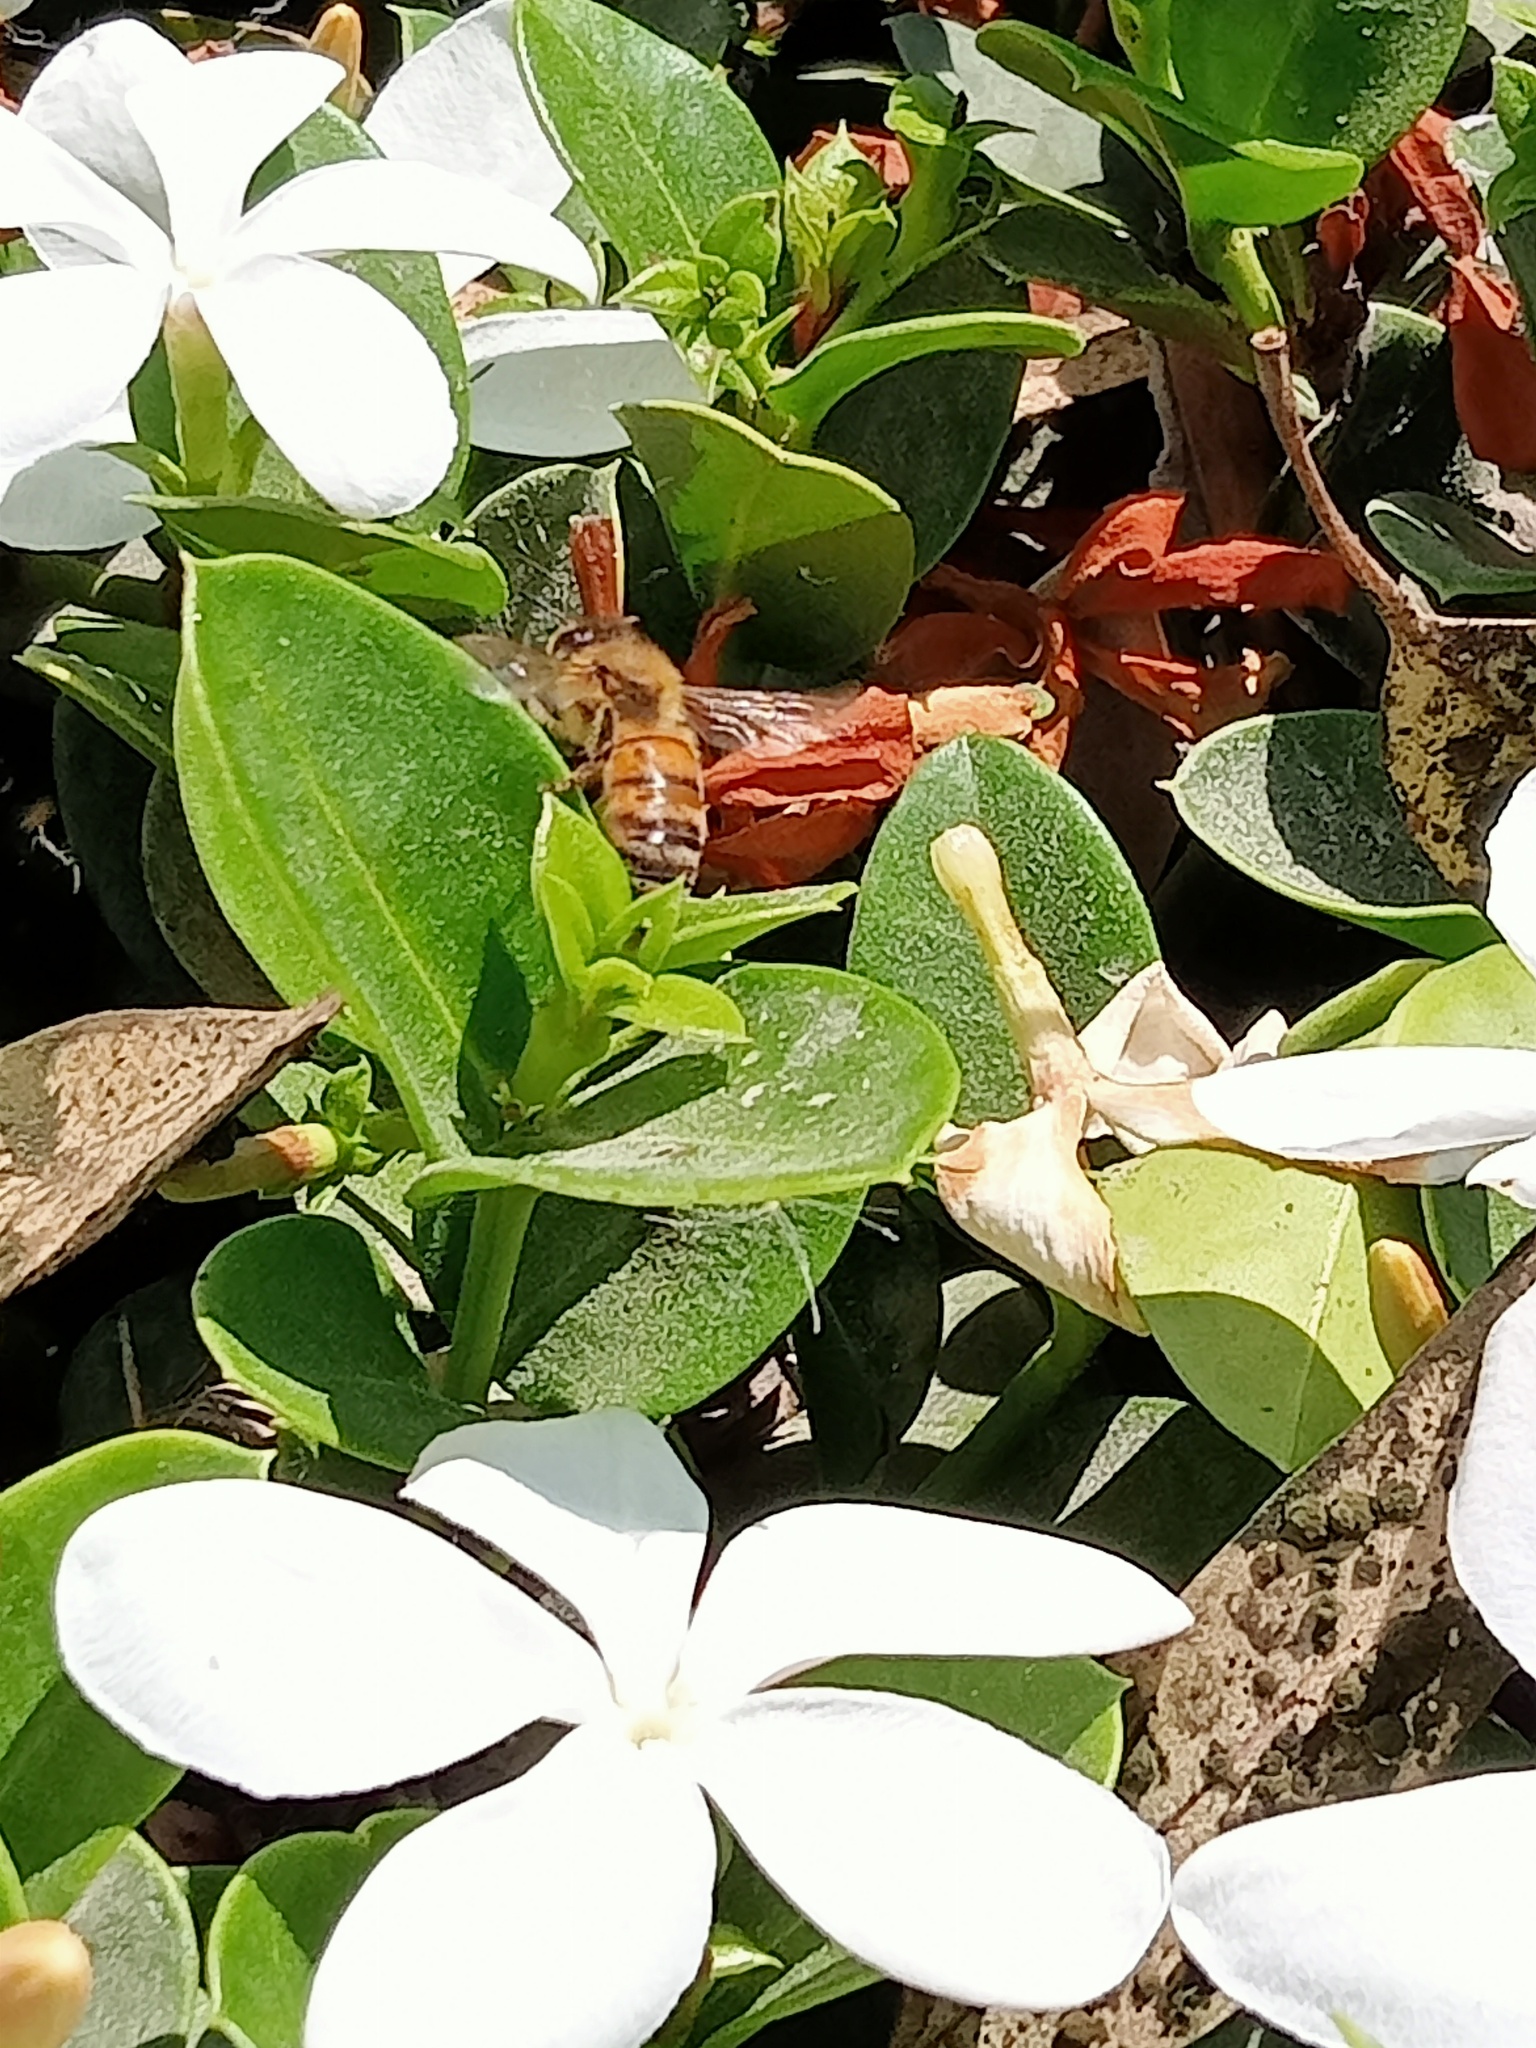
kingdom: Animalia
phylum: Arthropoda
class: Insecta
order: Hymenoptera
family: Apidae
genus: Apis
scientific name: Apis mellifera
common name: Honey bee
